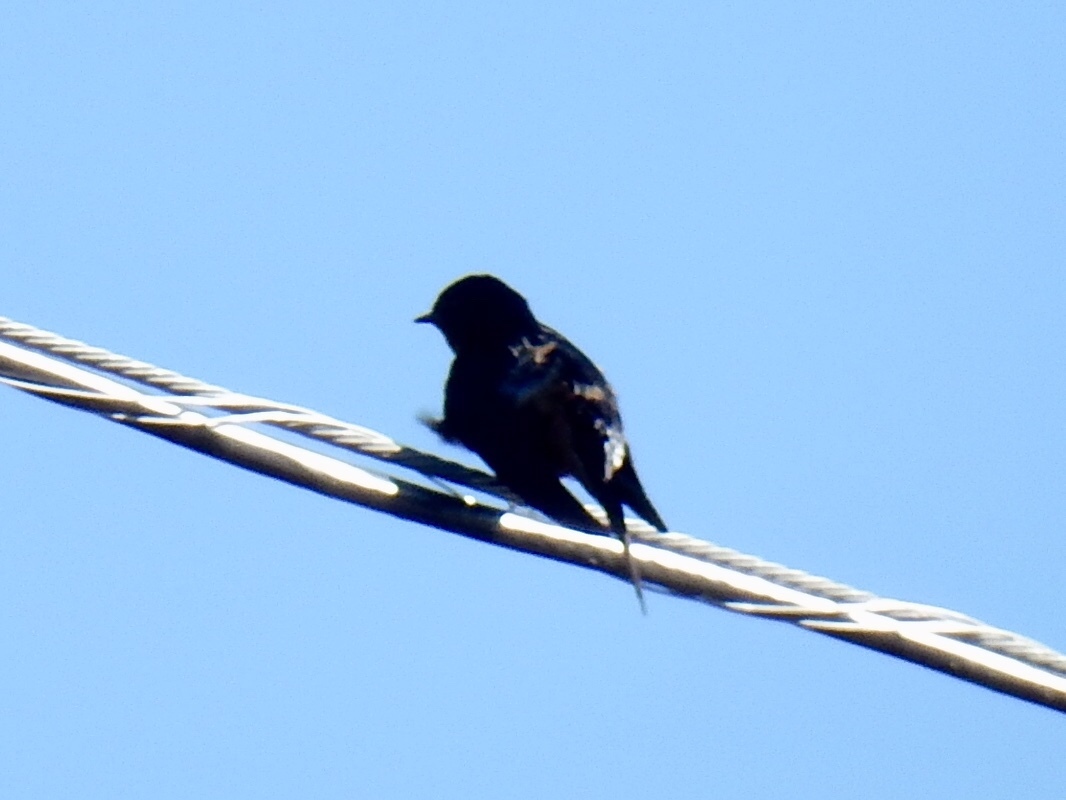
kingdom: Animalia
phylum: Chordata
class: Aves
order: Passeriformes
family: Hirundinidae
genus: Hirundo
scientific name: Hirundo rustica
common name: Barn swallow
